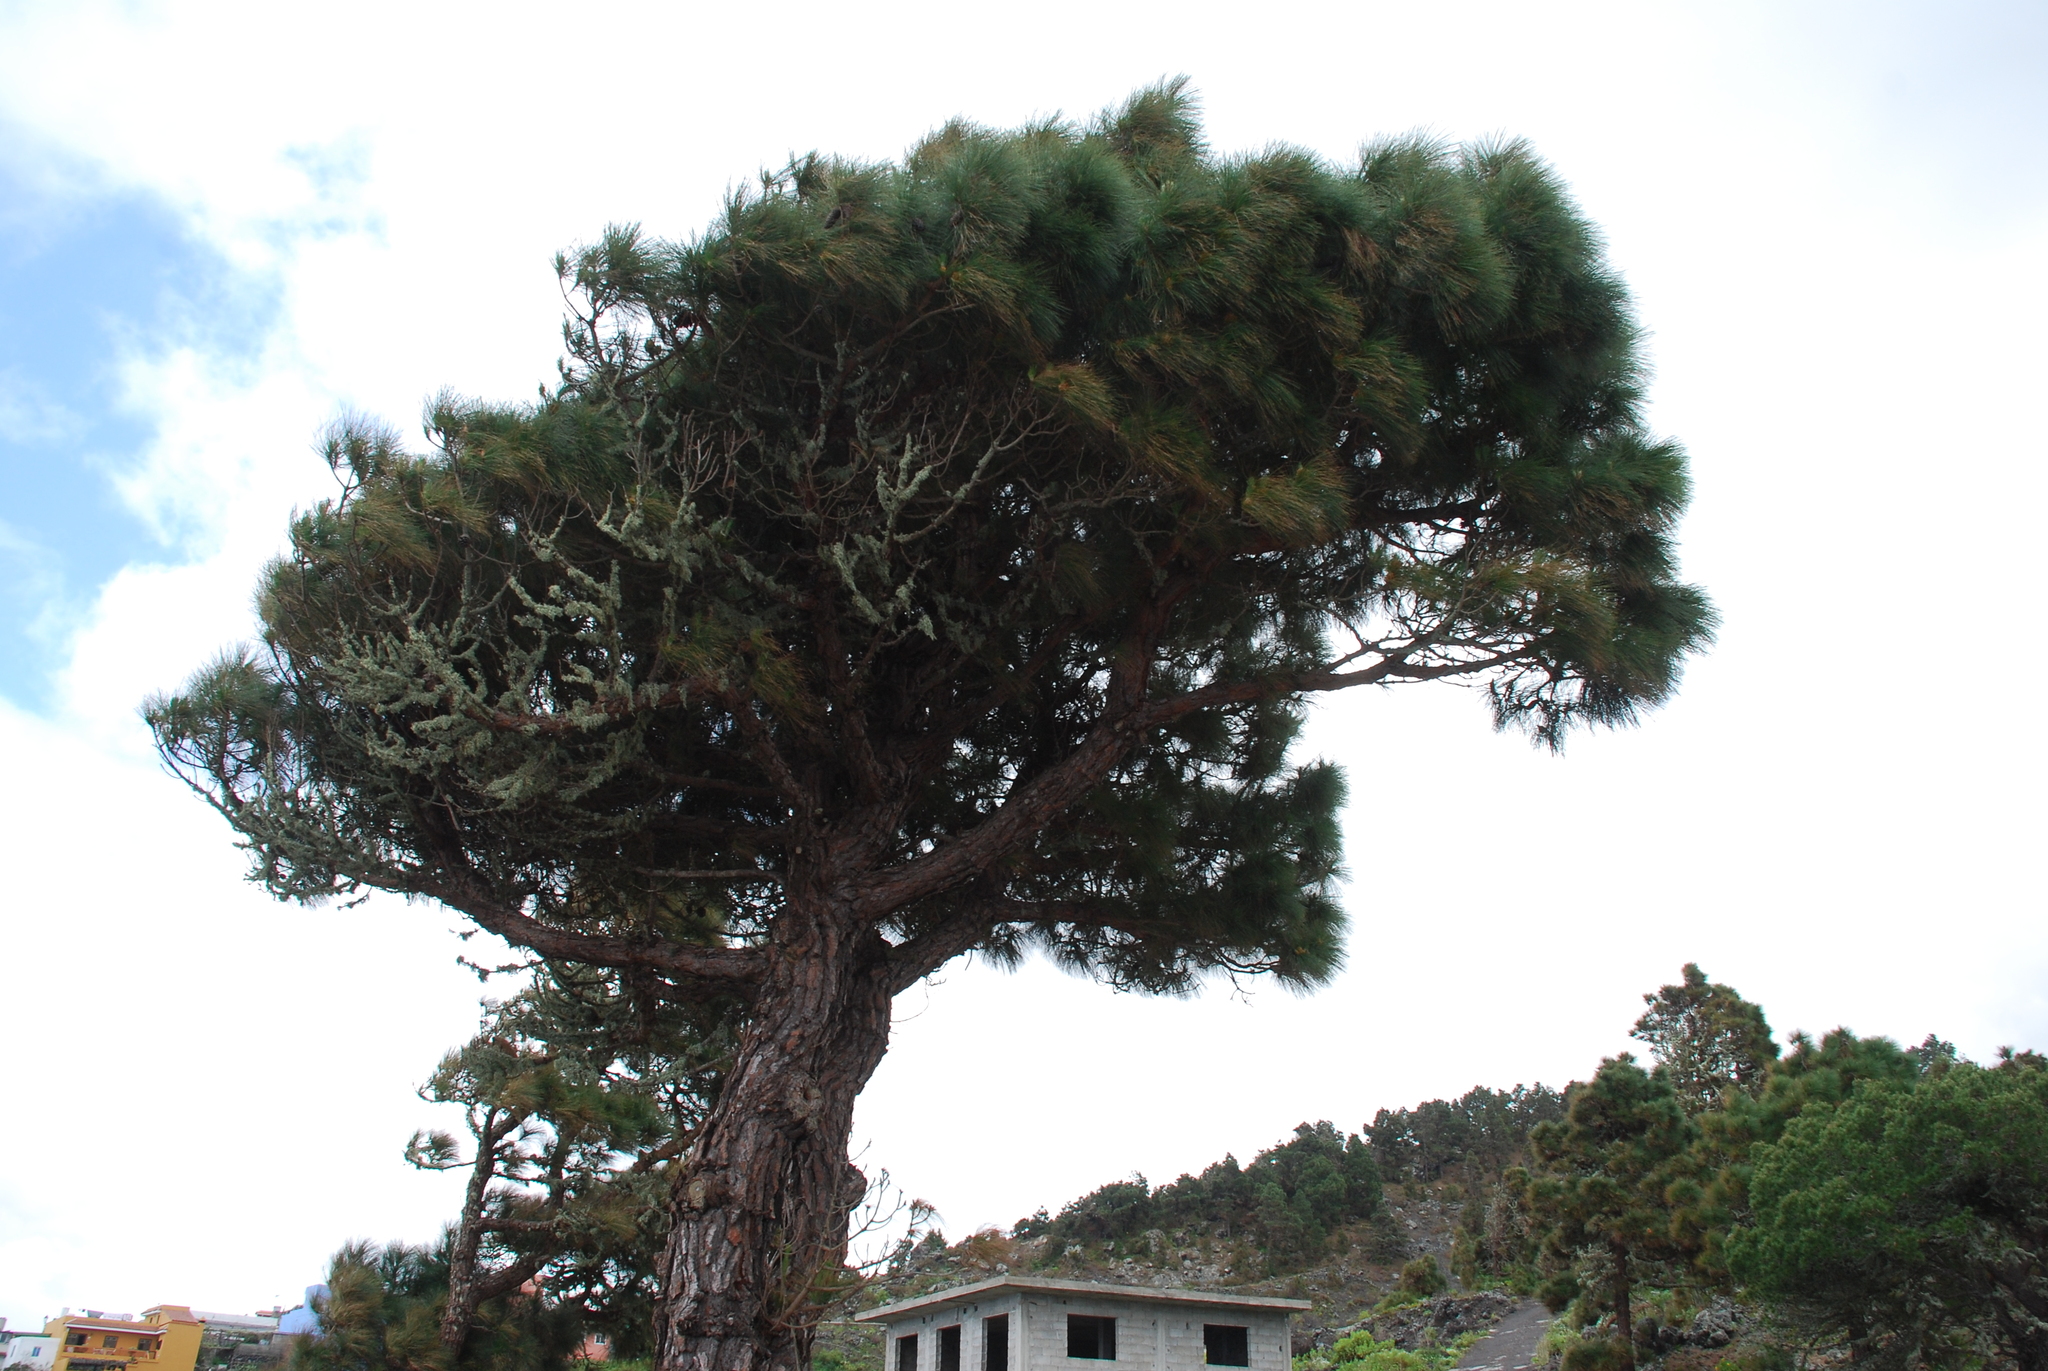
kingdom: Plantae
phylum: Tracheophyta
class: Pinopsida
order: Pinales
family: Pinaceae
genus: Pinus
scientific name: Pinus canariensis
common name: Canary islands pine
